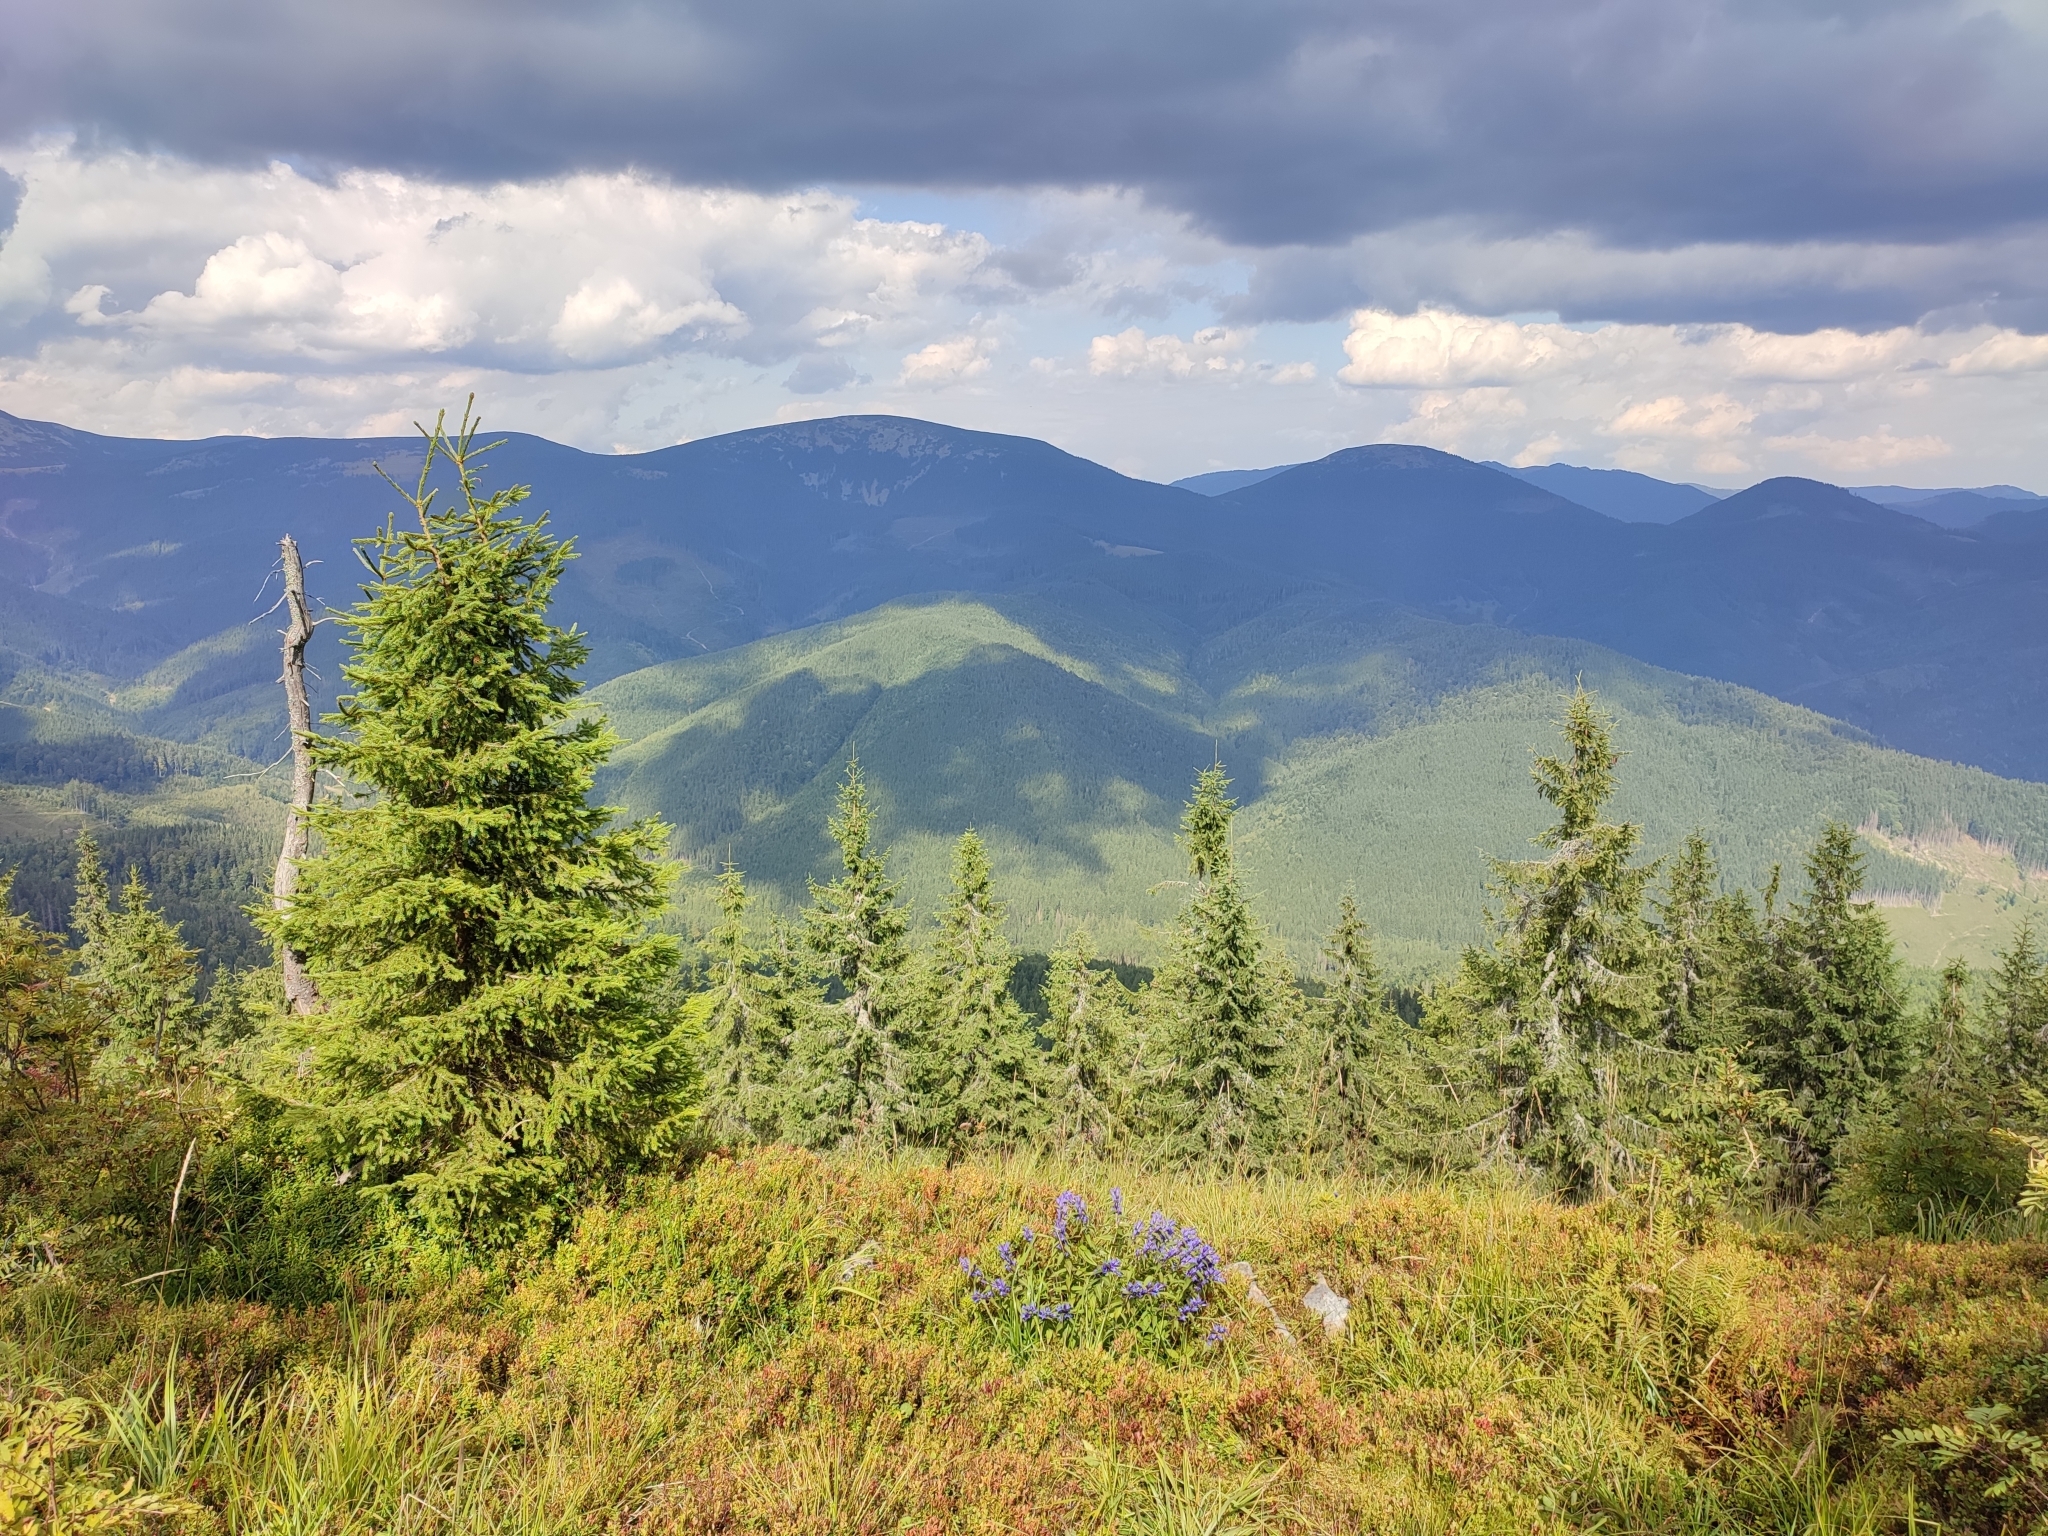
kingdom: Plantae
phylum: Tracheophyta
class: Pinopsida
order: Pinales
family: Pinaceae
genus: Picea
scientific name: Picea abies
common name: Norway spruce
